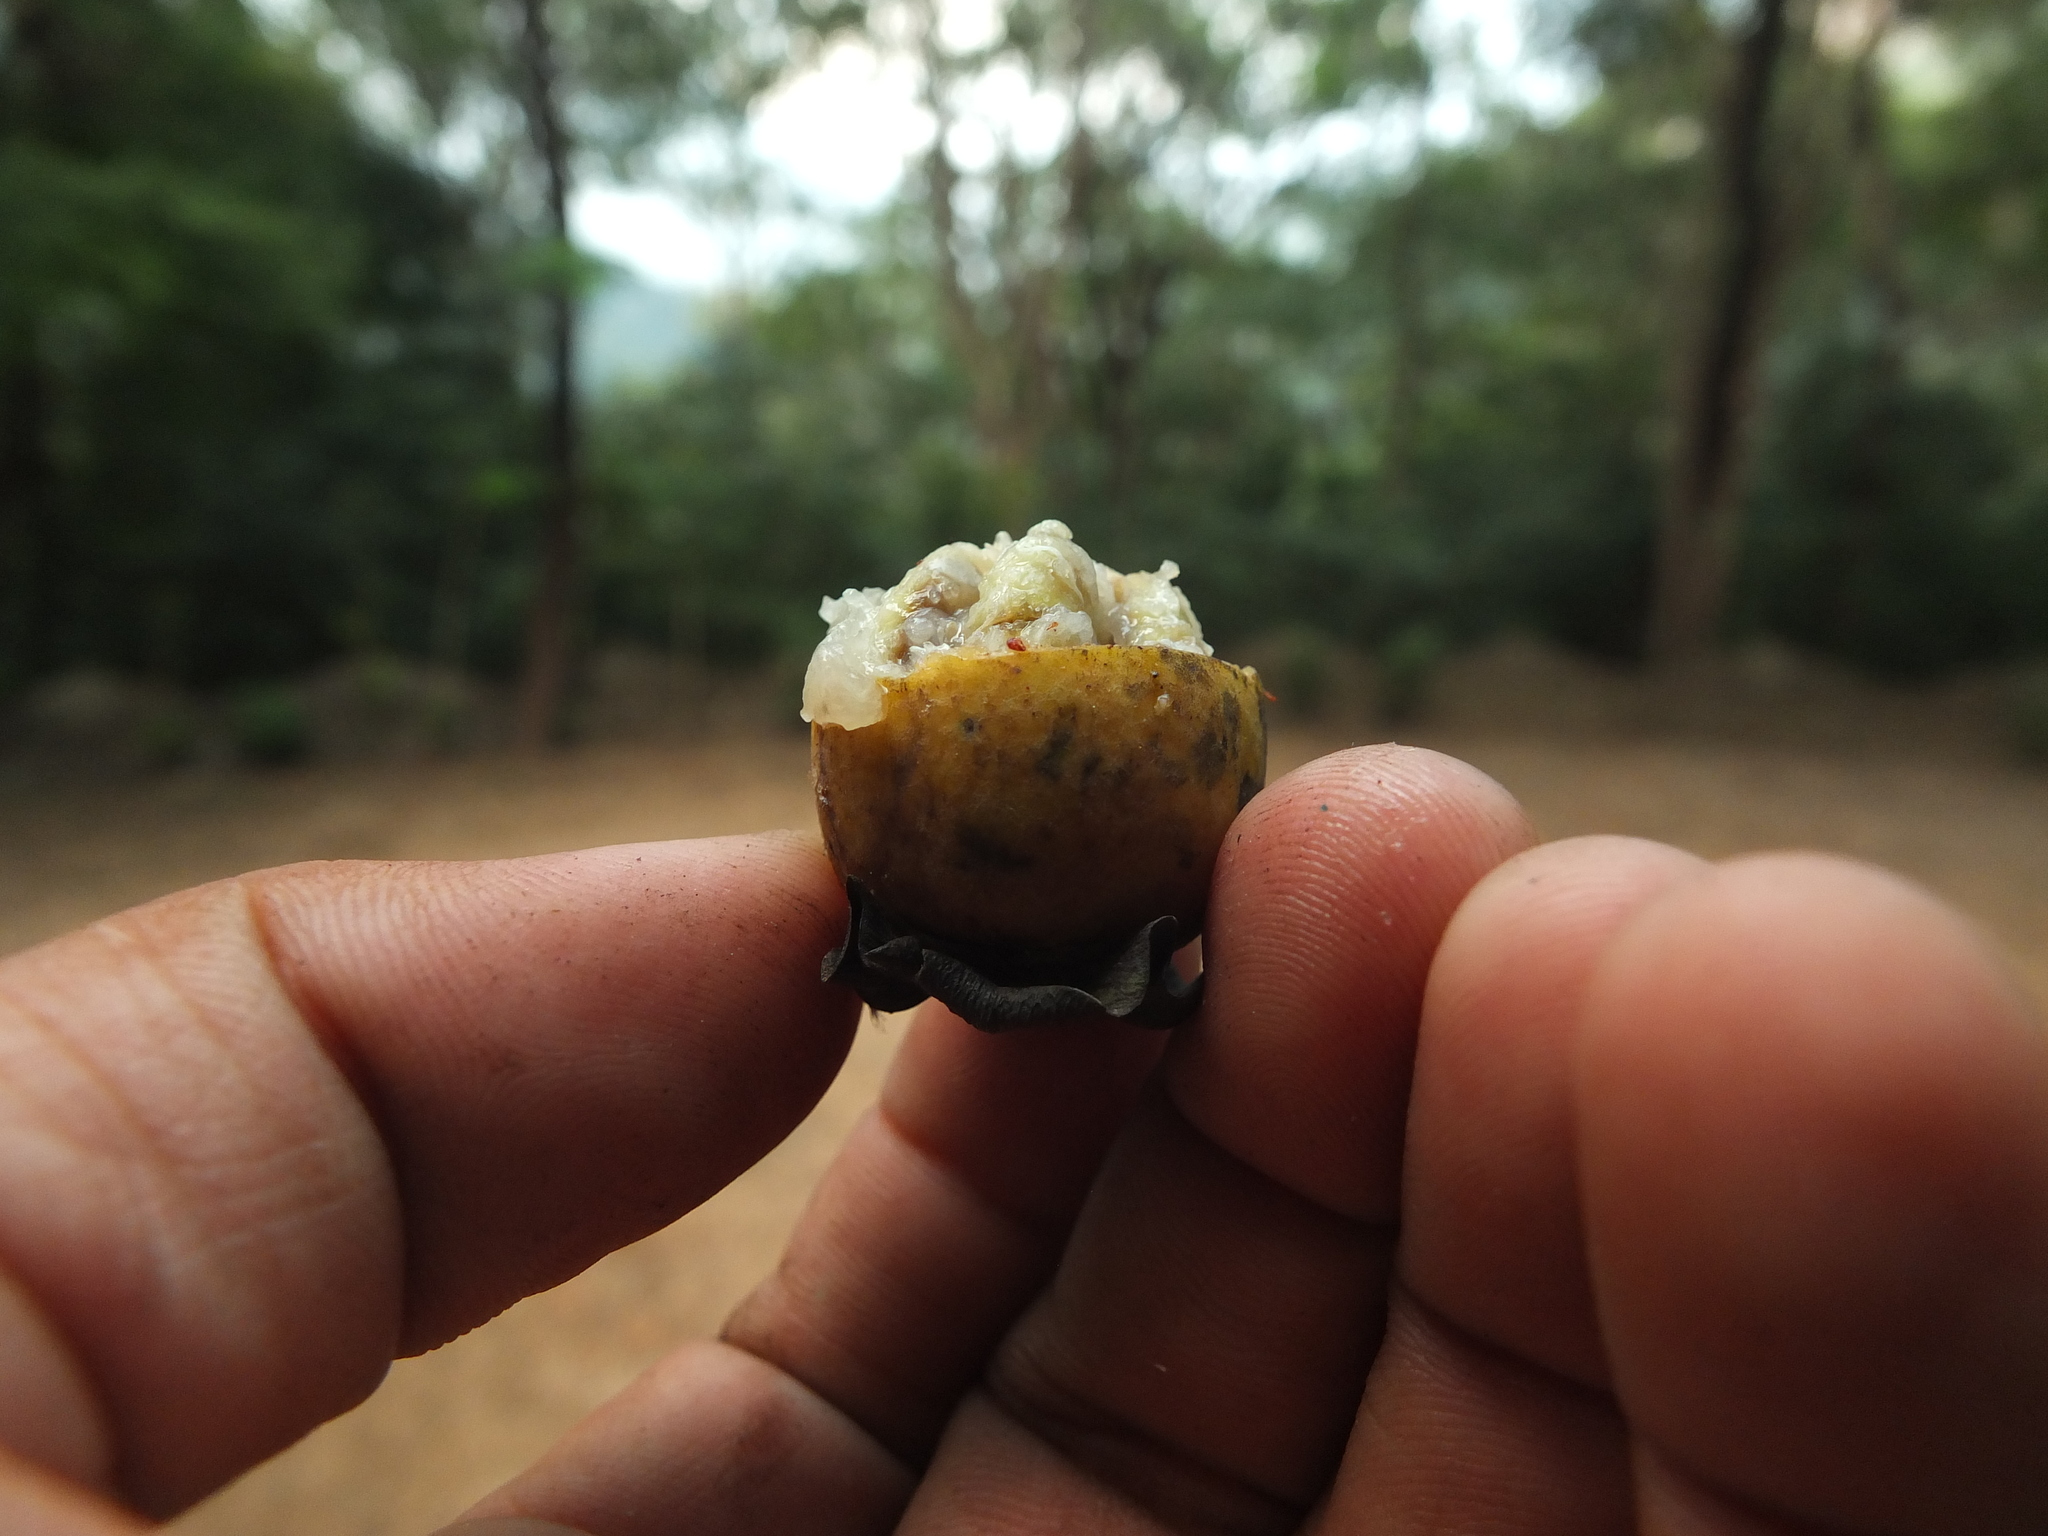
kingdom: Plantae
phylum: Tracheophyta
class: Magnoliopsida
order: Ericales
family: Ebenaceae
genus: Diospyros
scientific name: Diospyros barberi
